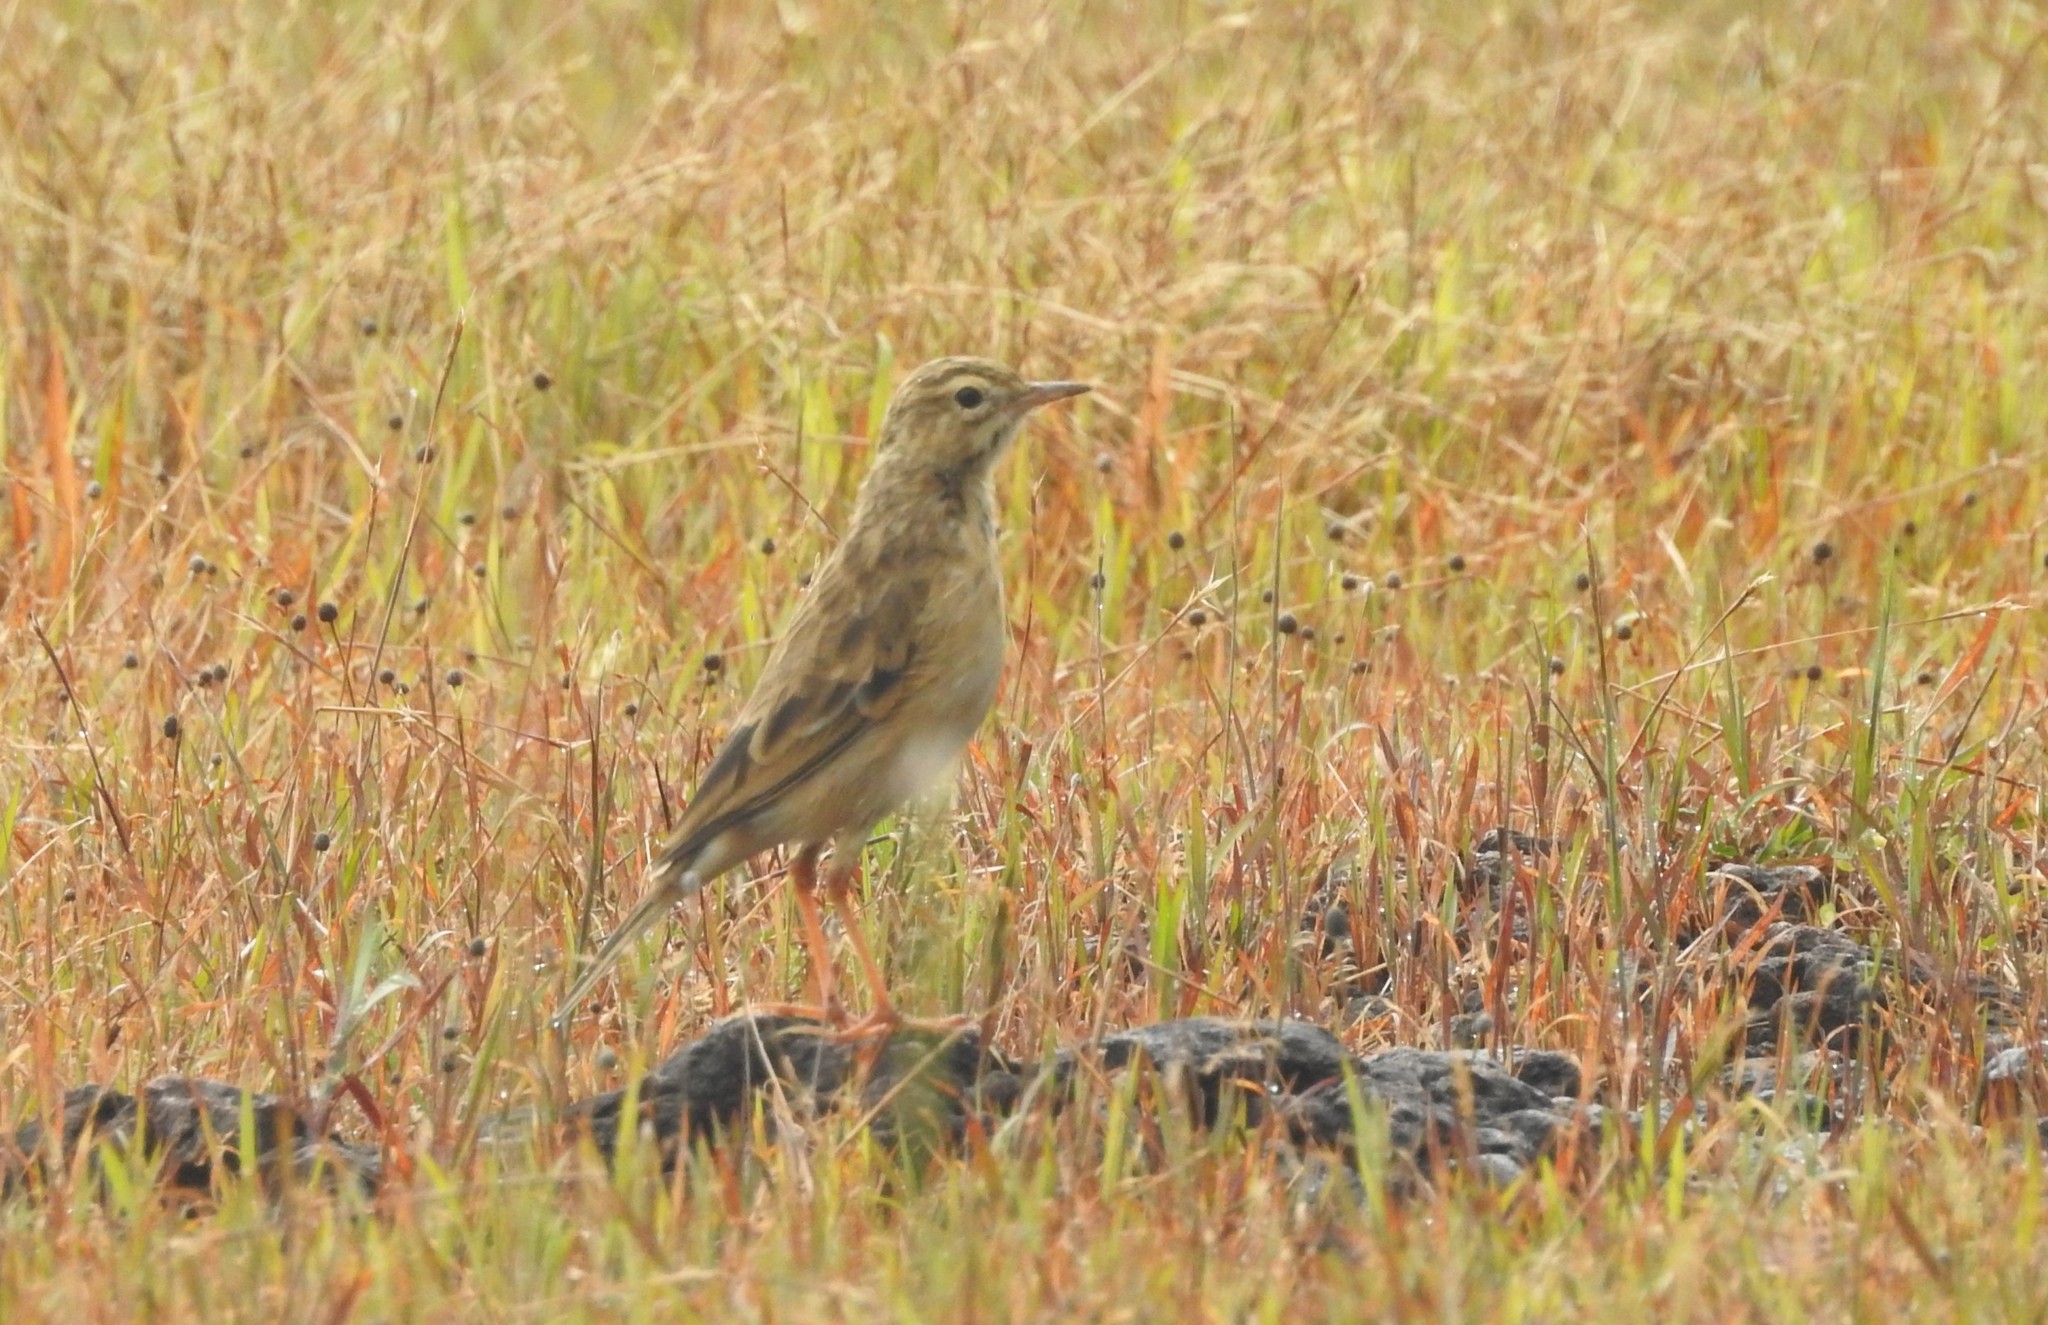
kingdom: Animalia
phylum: Chordata
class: Aves
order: Passeriformes
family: Motacillidae
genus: Anthus
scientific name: Anthus rufulus
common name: Paddyfield pipit
